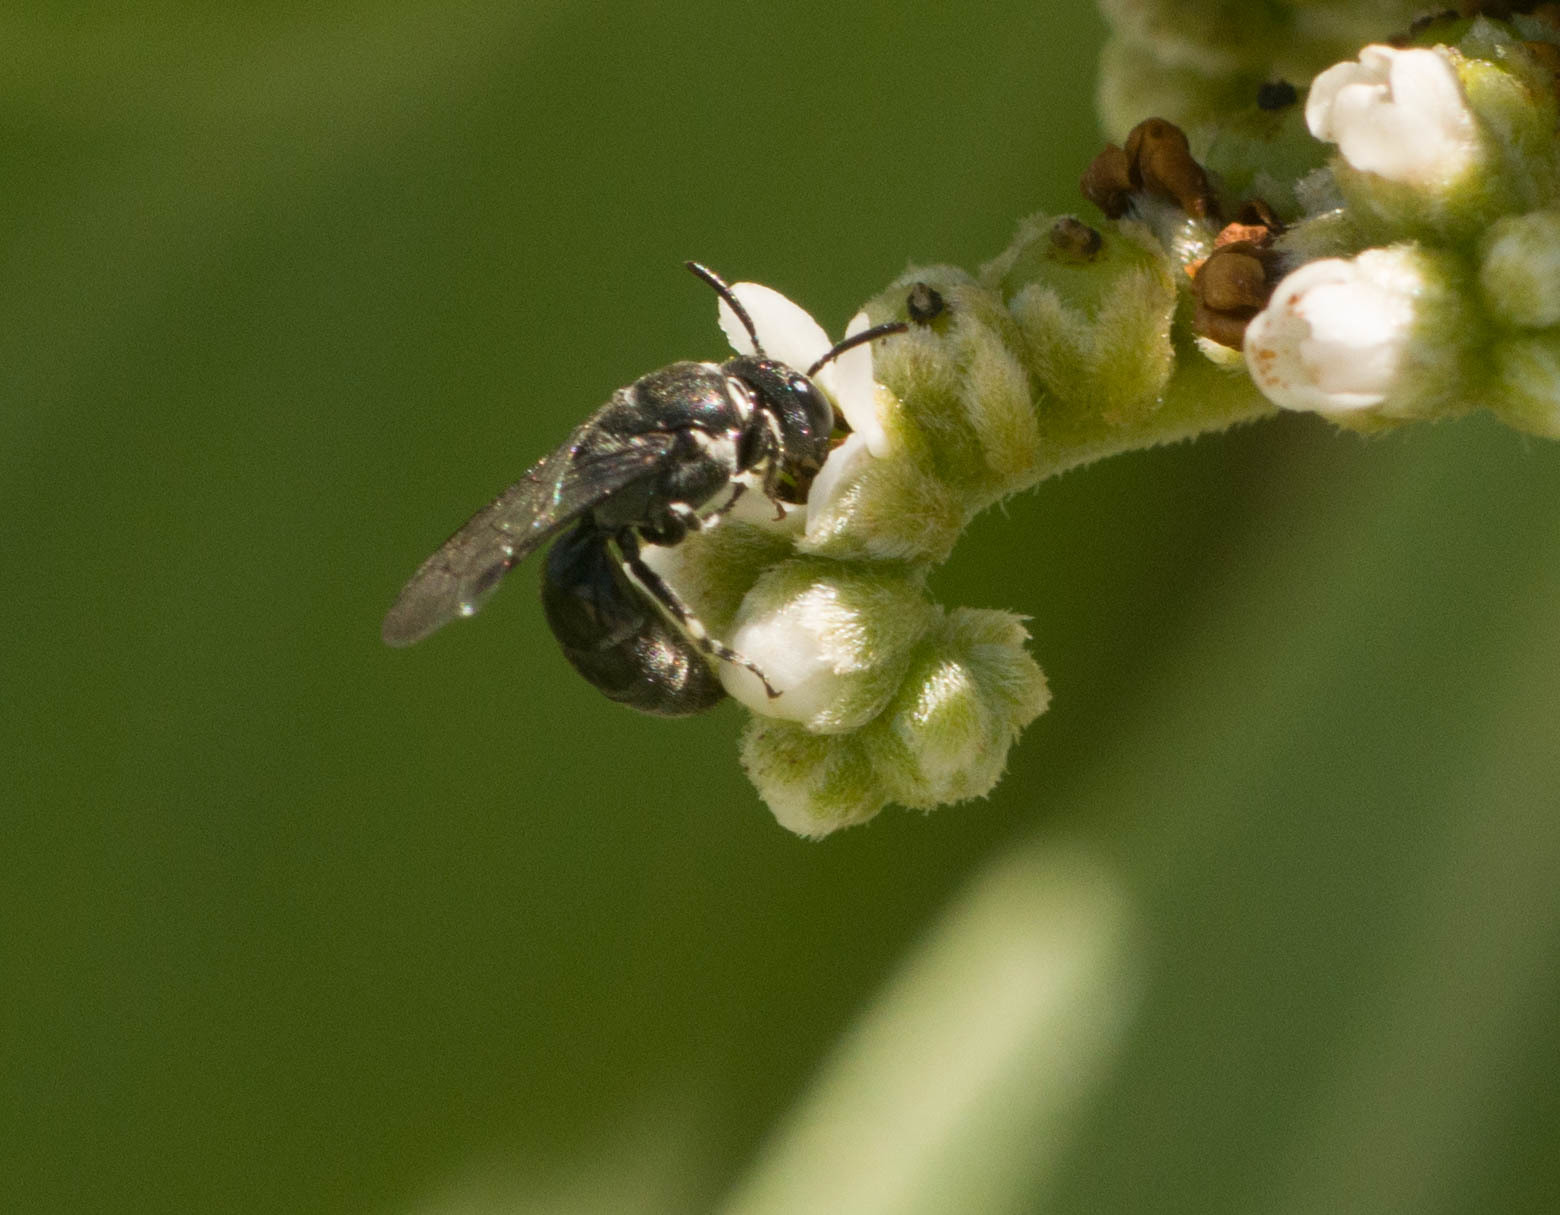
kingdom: Animalia
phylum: Arthropoda
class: Insecta
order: Hymenoptera
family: Colletidae
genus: Hylaeus
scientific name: Hylaeus strenuus
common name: Plasterer bee
